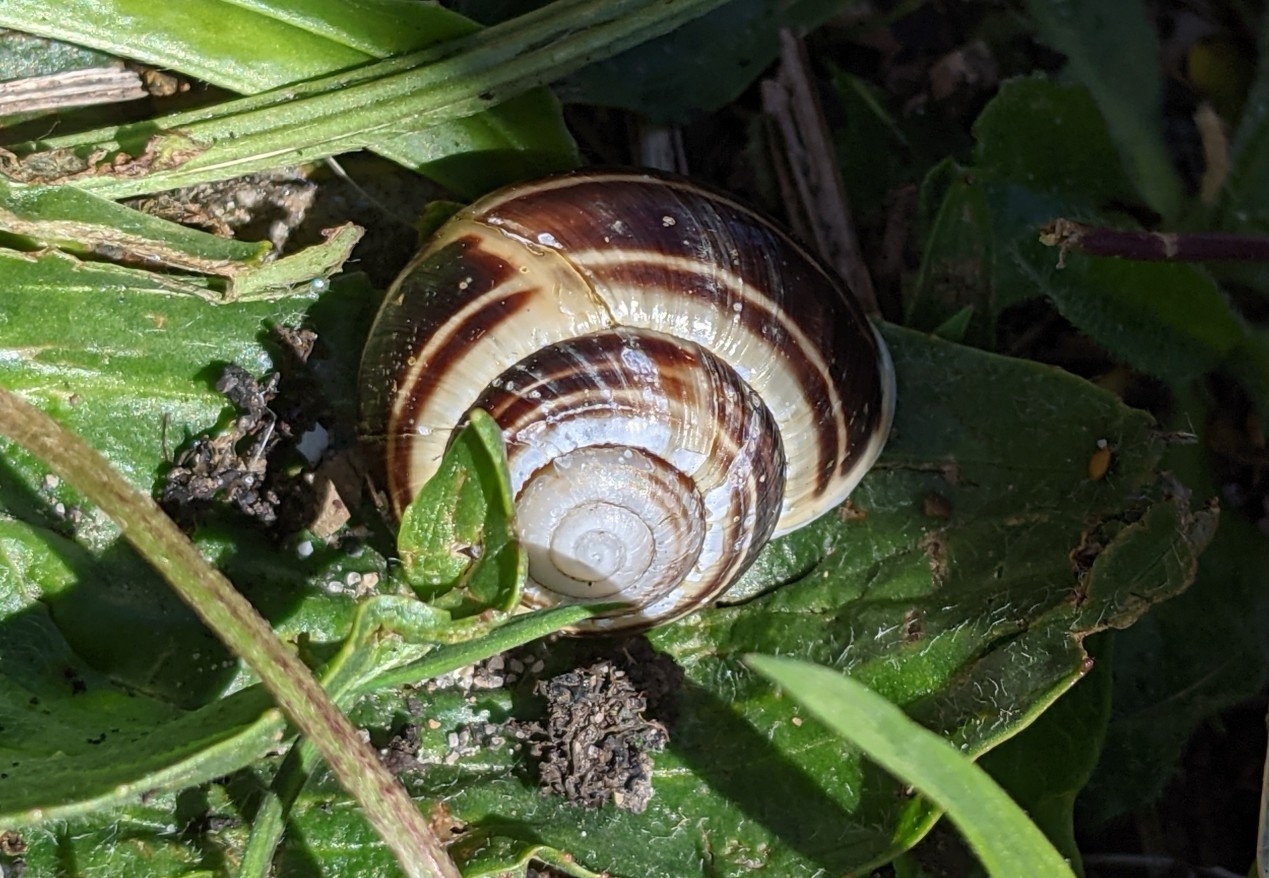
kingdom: Animalia
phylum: Mollusca
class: Gastropoda
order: Stylommatophora
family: Helicidae
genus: Cepaea
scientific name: Cepaea hortensis
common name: White-lip gardensnail
